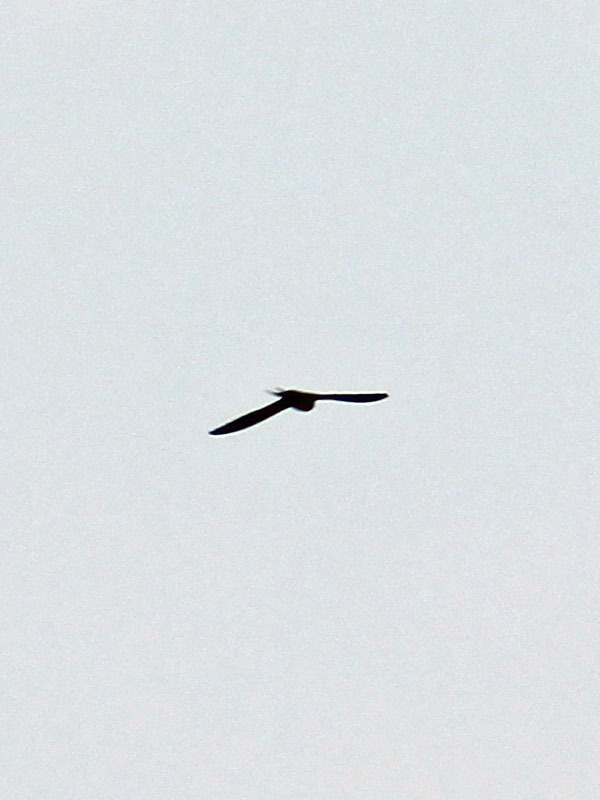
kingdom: Animalia
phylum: Chordata
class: Aves
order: Passeriformes
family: Hirundinidae
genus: Hirundo
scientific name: Hirundo rustica
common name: Barn swallow
